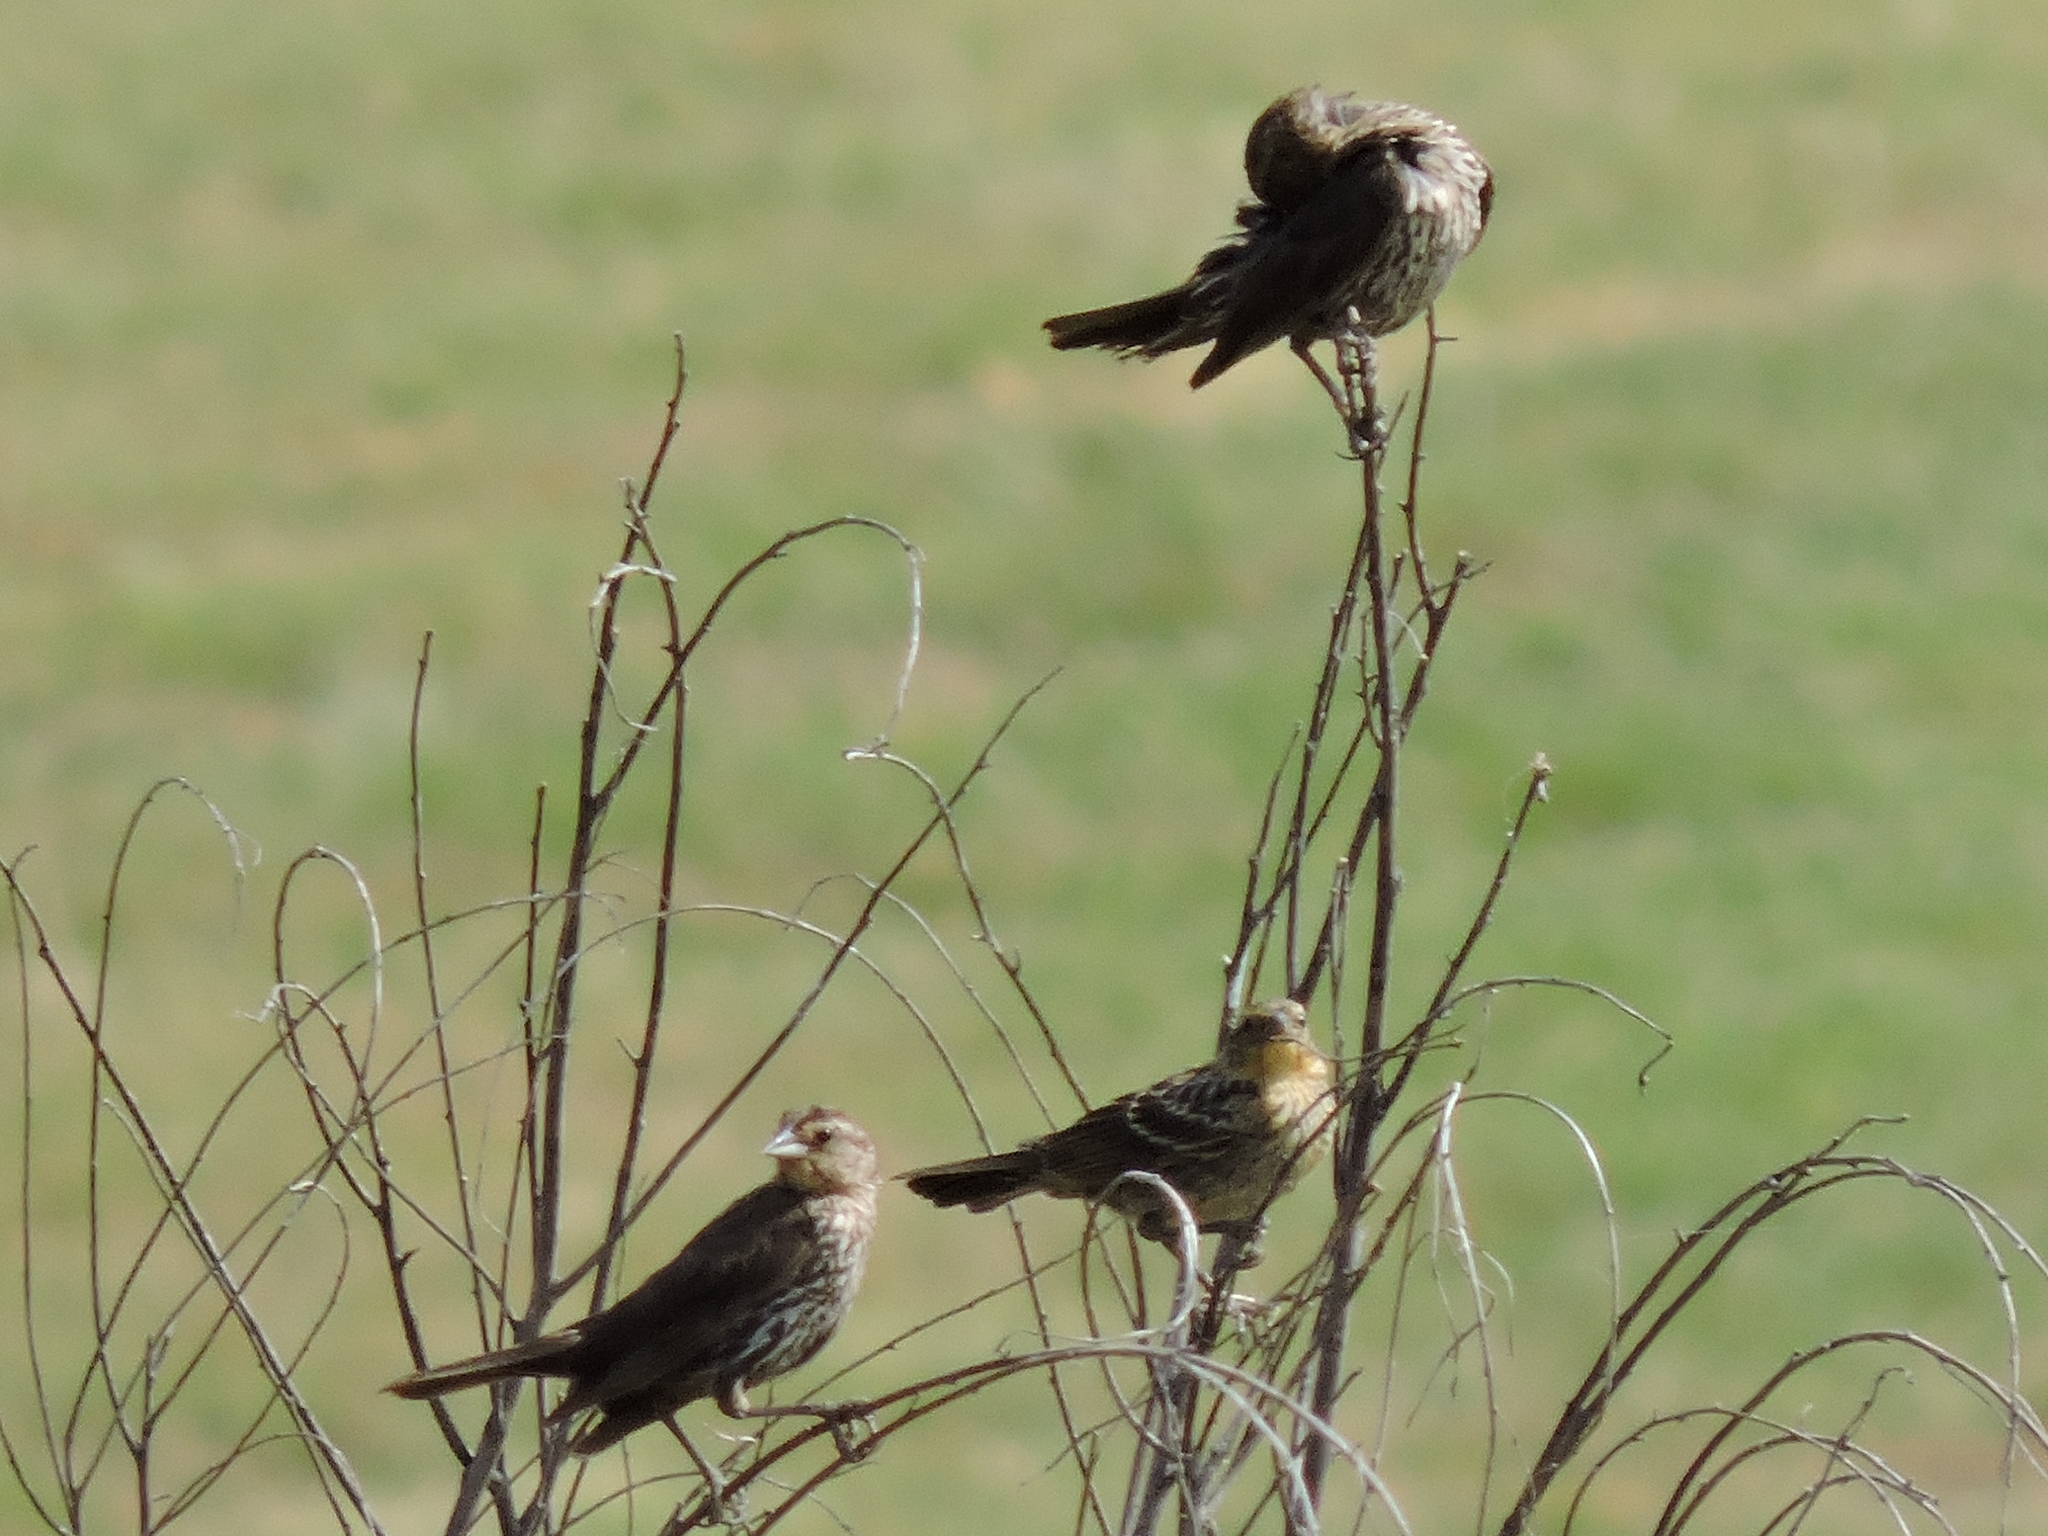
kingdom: Animalia
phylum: Chordata
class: Aves
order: Passeriformes
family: Icteridae
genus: Agelaius
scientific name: Agelaius phoeniceus
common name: Red-winged blackbird
